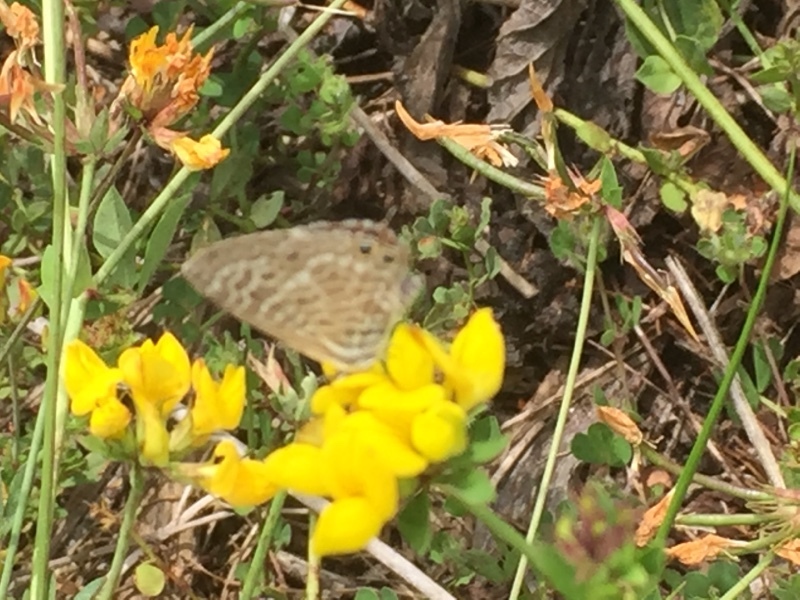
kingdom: Animalia
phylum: Arthropoda
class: Insecta
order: Lepidoptera
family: Lycaenidae
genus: Leptotes
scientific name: Leptotes pirithous
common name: Lang's short-tailed blue
